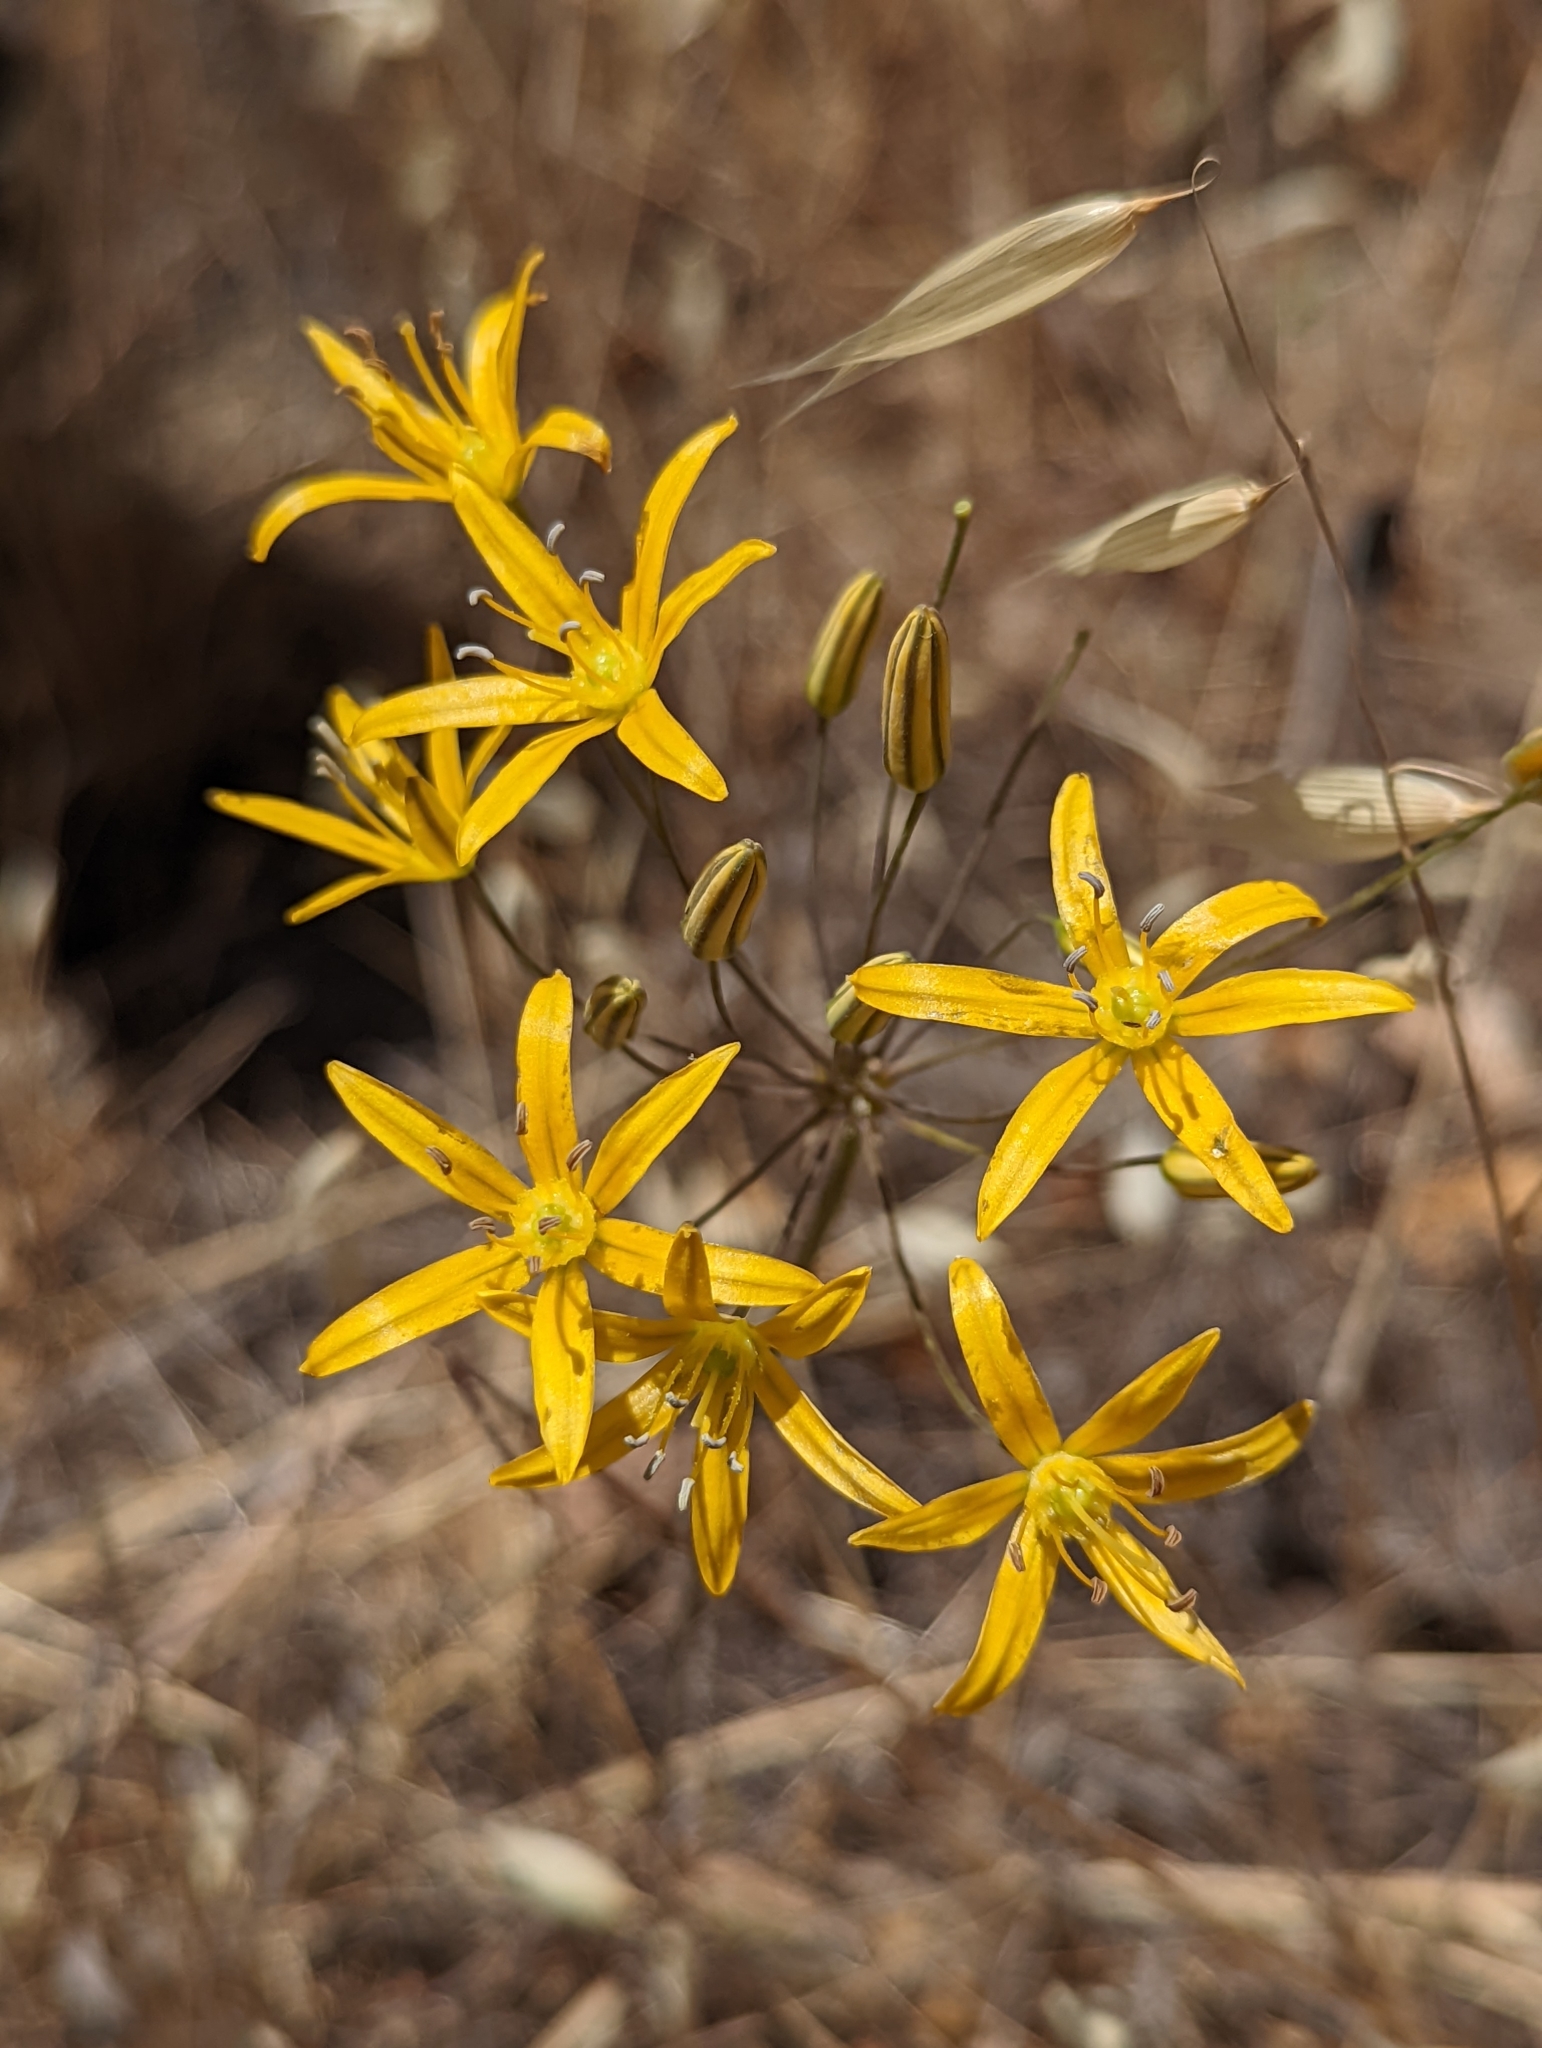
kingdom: Plantae
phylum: Tracheophyta
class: Liliopsida
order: Asparagales
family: Asparagaceae
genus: Bloomeria
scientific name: Bloomeria crocea
